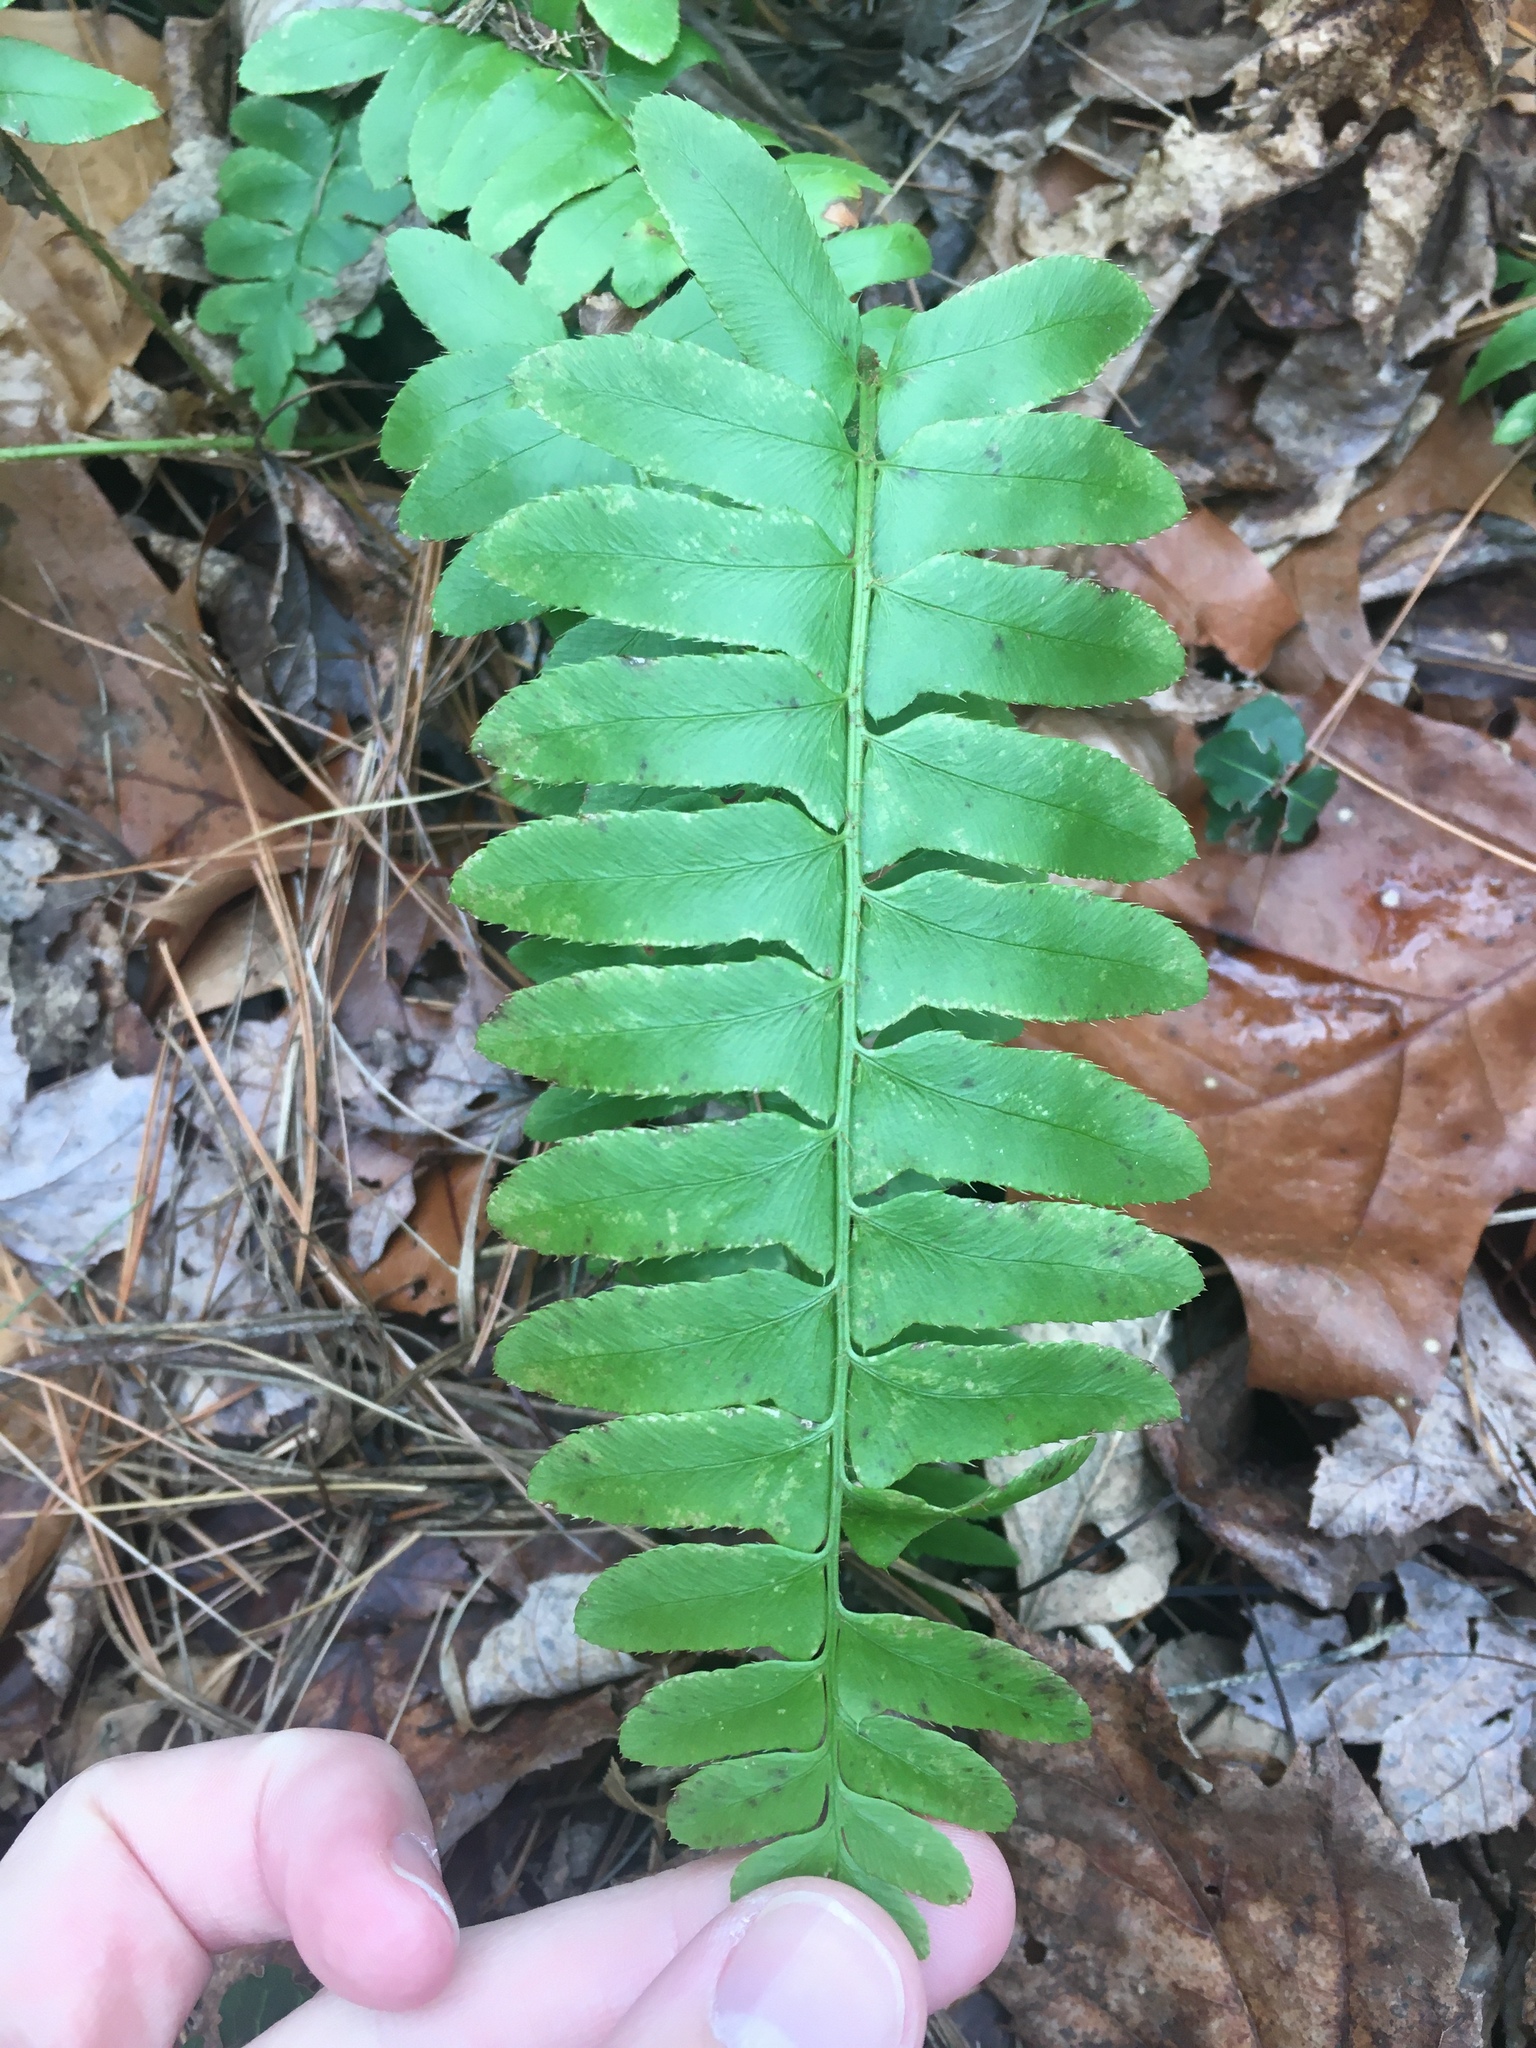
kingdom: Plantae
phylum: Tracheophyta
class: Polypodiopsida
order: Polypodiales
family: Dryopteridaceae
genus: Polystichum
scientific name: Polystichum acrostichoides
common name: Christmas fern
